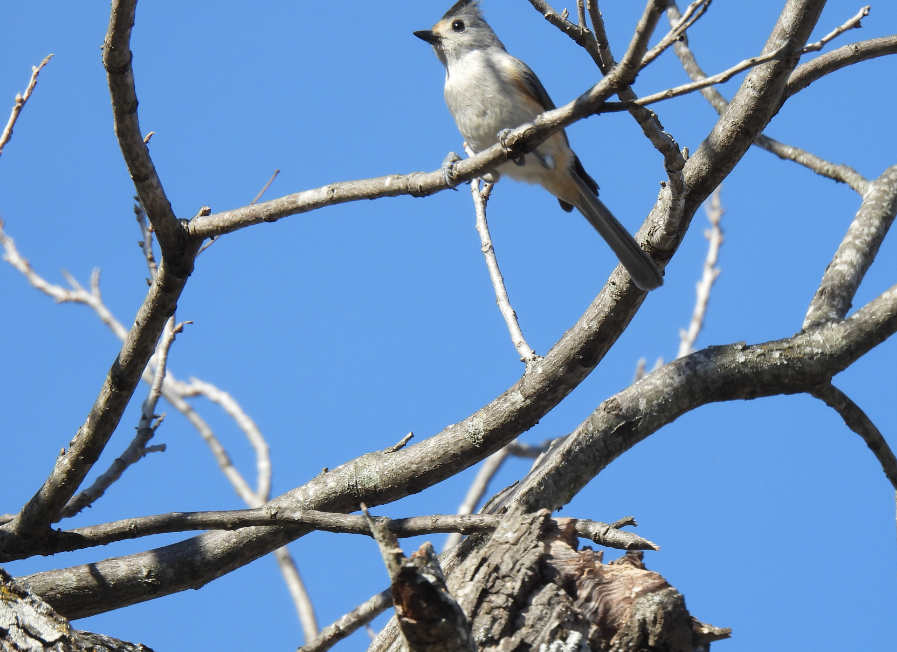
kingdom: Animalia
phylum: Chordata
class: Aves
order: Passeriformes
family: Paridae
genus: Baeolophus
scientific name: Baeolophus atricristatus
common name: Black-crested titmouse
